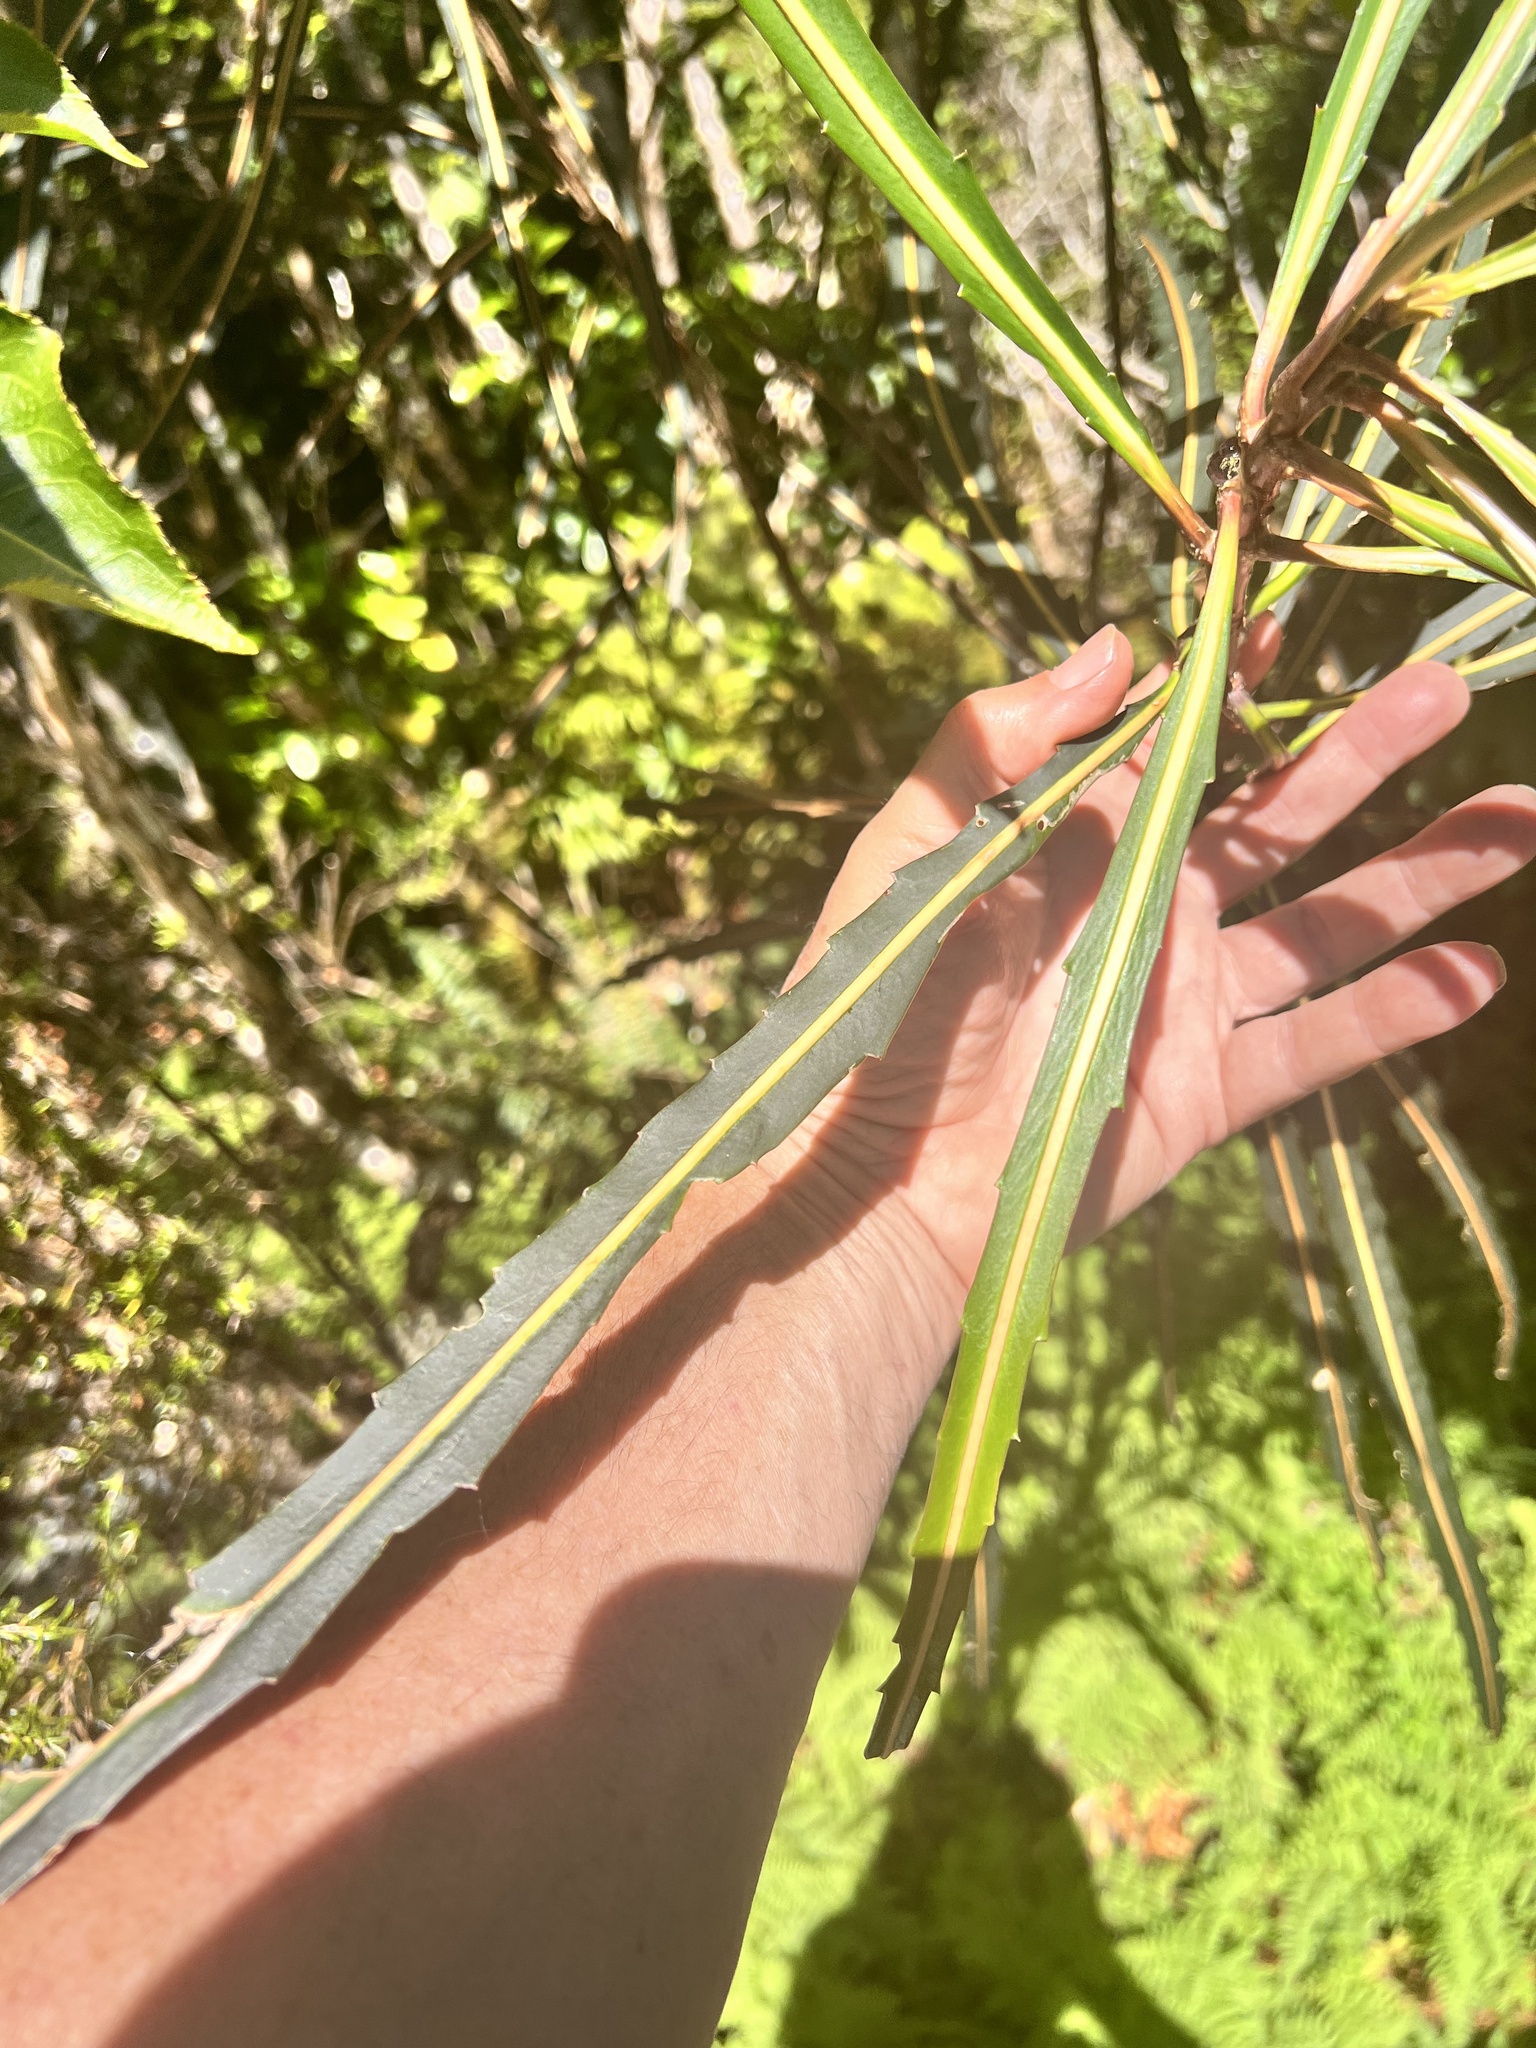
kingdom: Plantae
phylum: Tracheophyta
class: Magnoliopsida
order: Apiales
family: Araliaceae
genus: Pseudopanax
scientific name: Pseudopanax crassifolius
